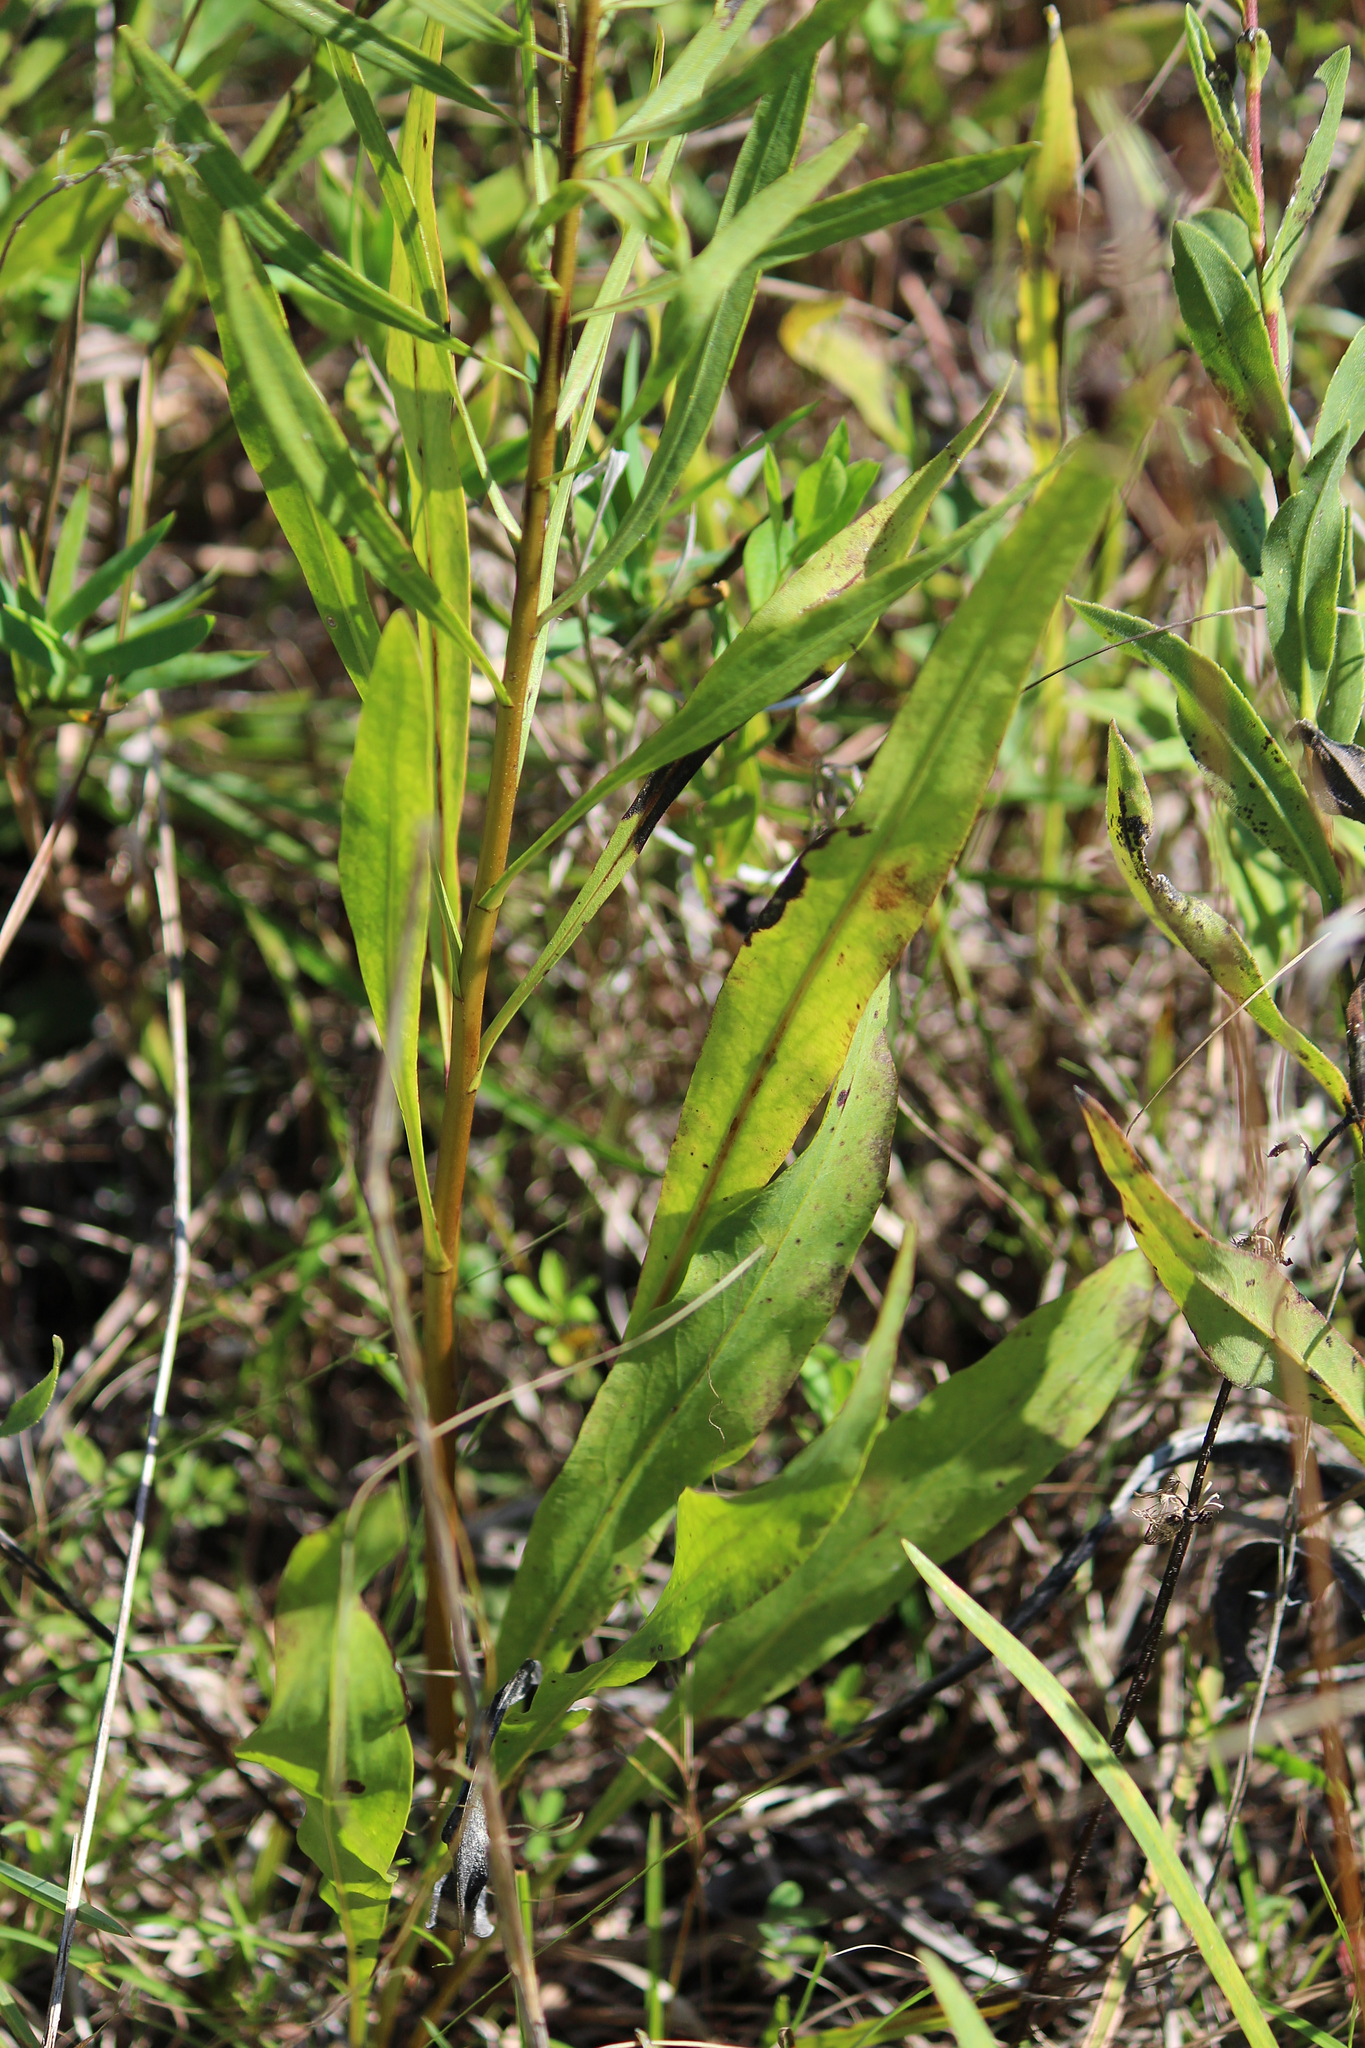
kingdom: Plantae
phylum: Tracheophyta
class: Magnoliopsida
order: Asterales
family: Asteraceae
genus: Liatris
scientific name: Liatris aspera
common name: Lacerate blazing-star
